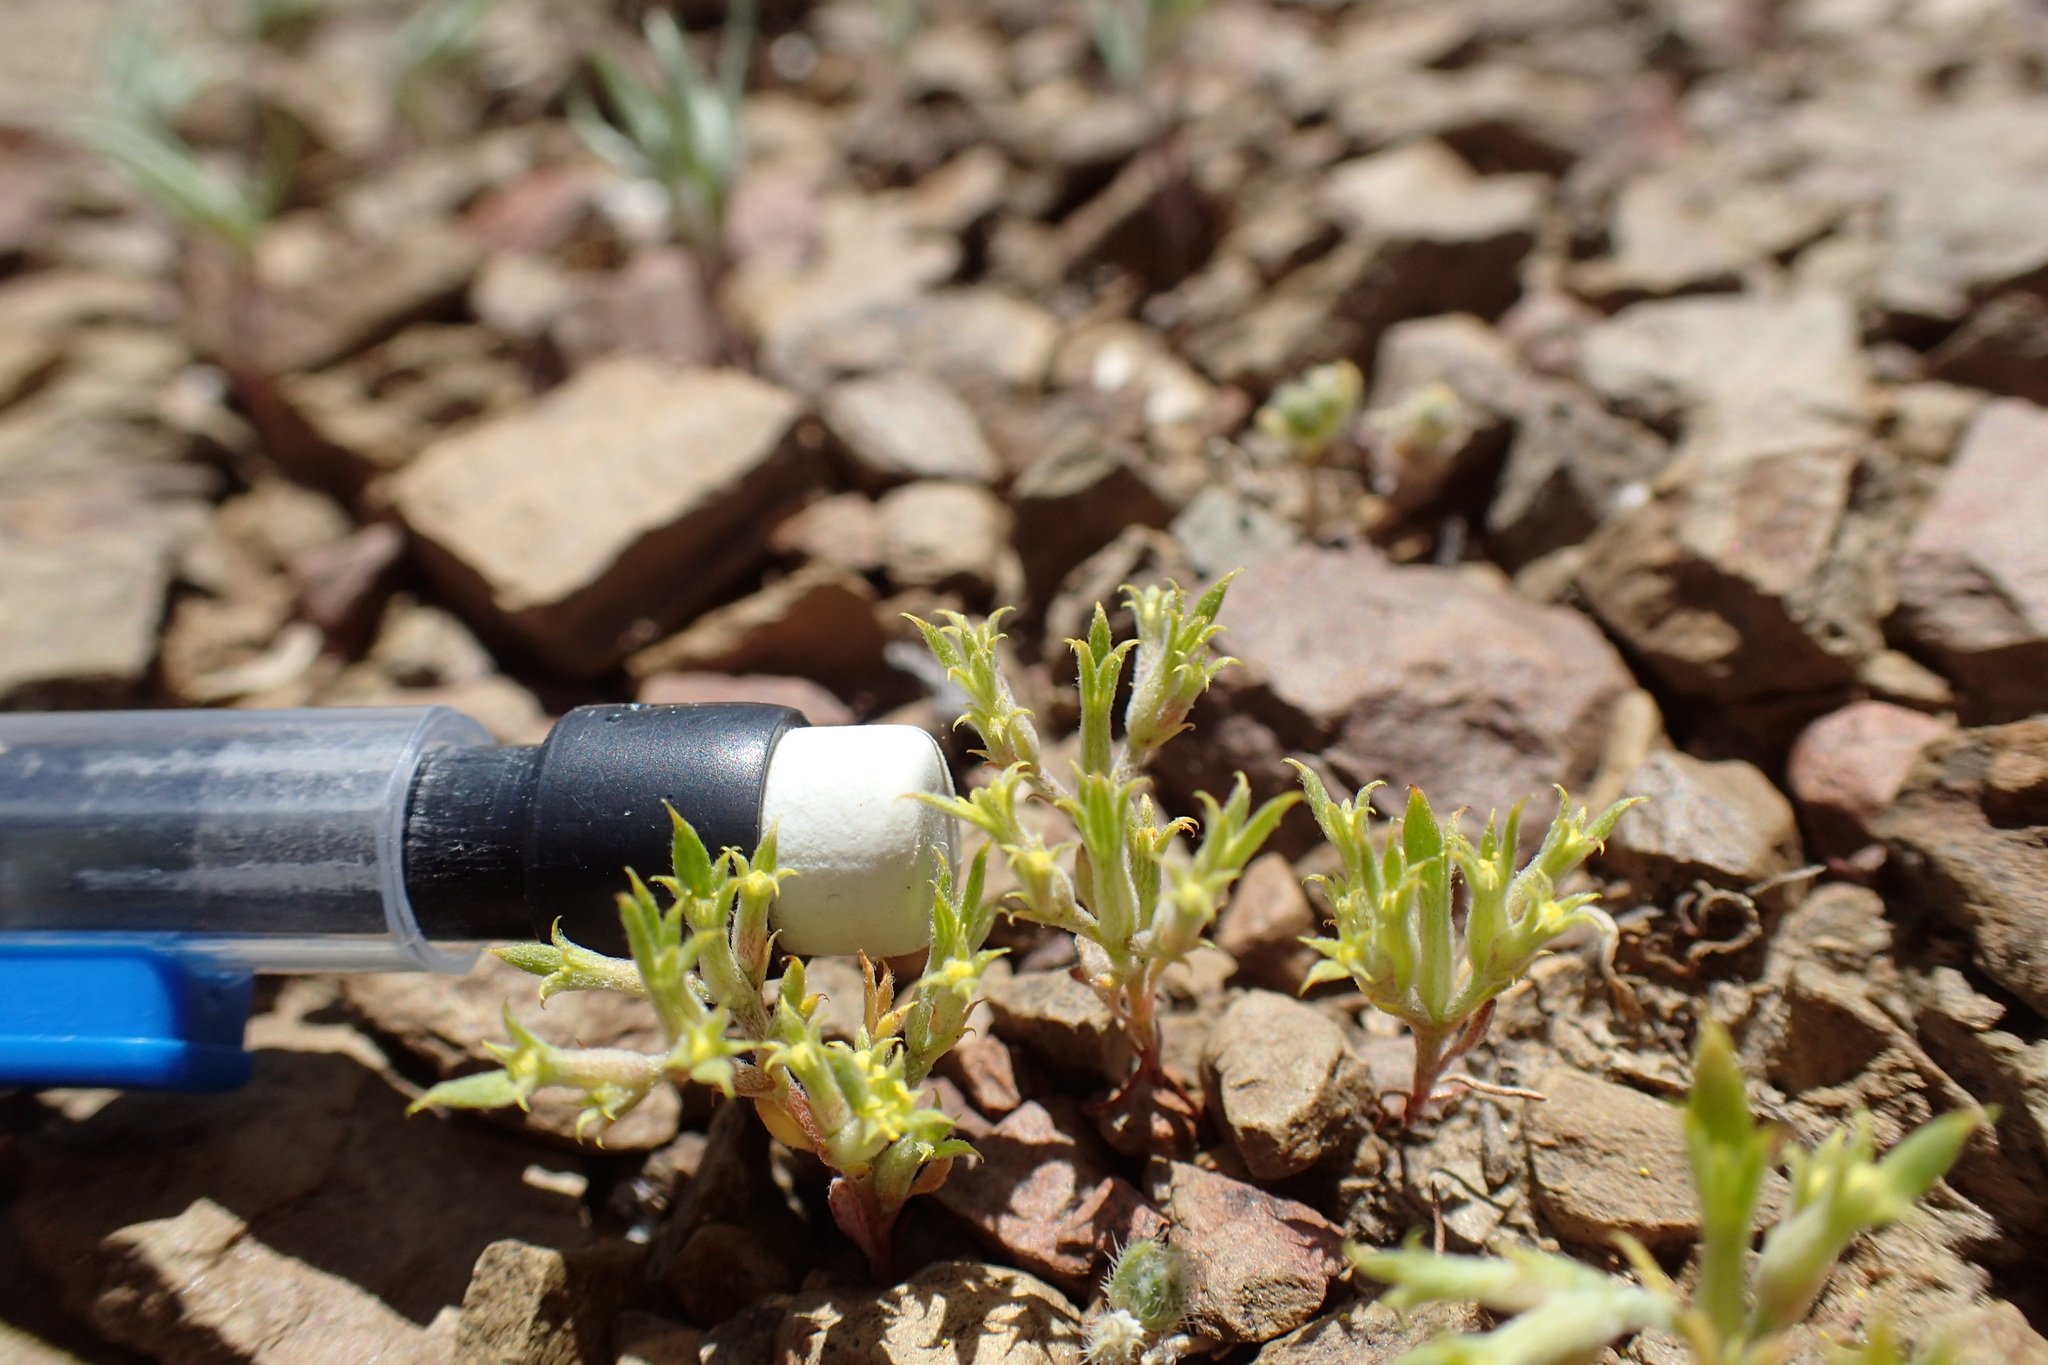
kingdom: Plantae
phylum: Tracheophyta
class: Magnoliopsida
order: Caryophyllales
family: Polygonaceae
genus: Chorizanthe
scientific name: Chorizanthe watsonii
